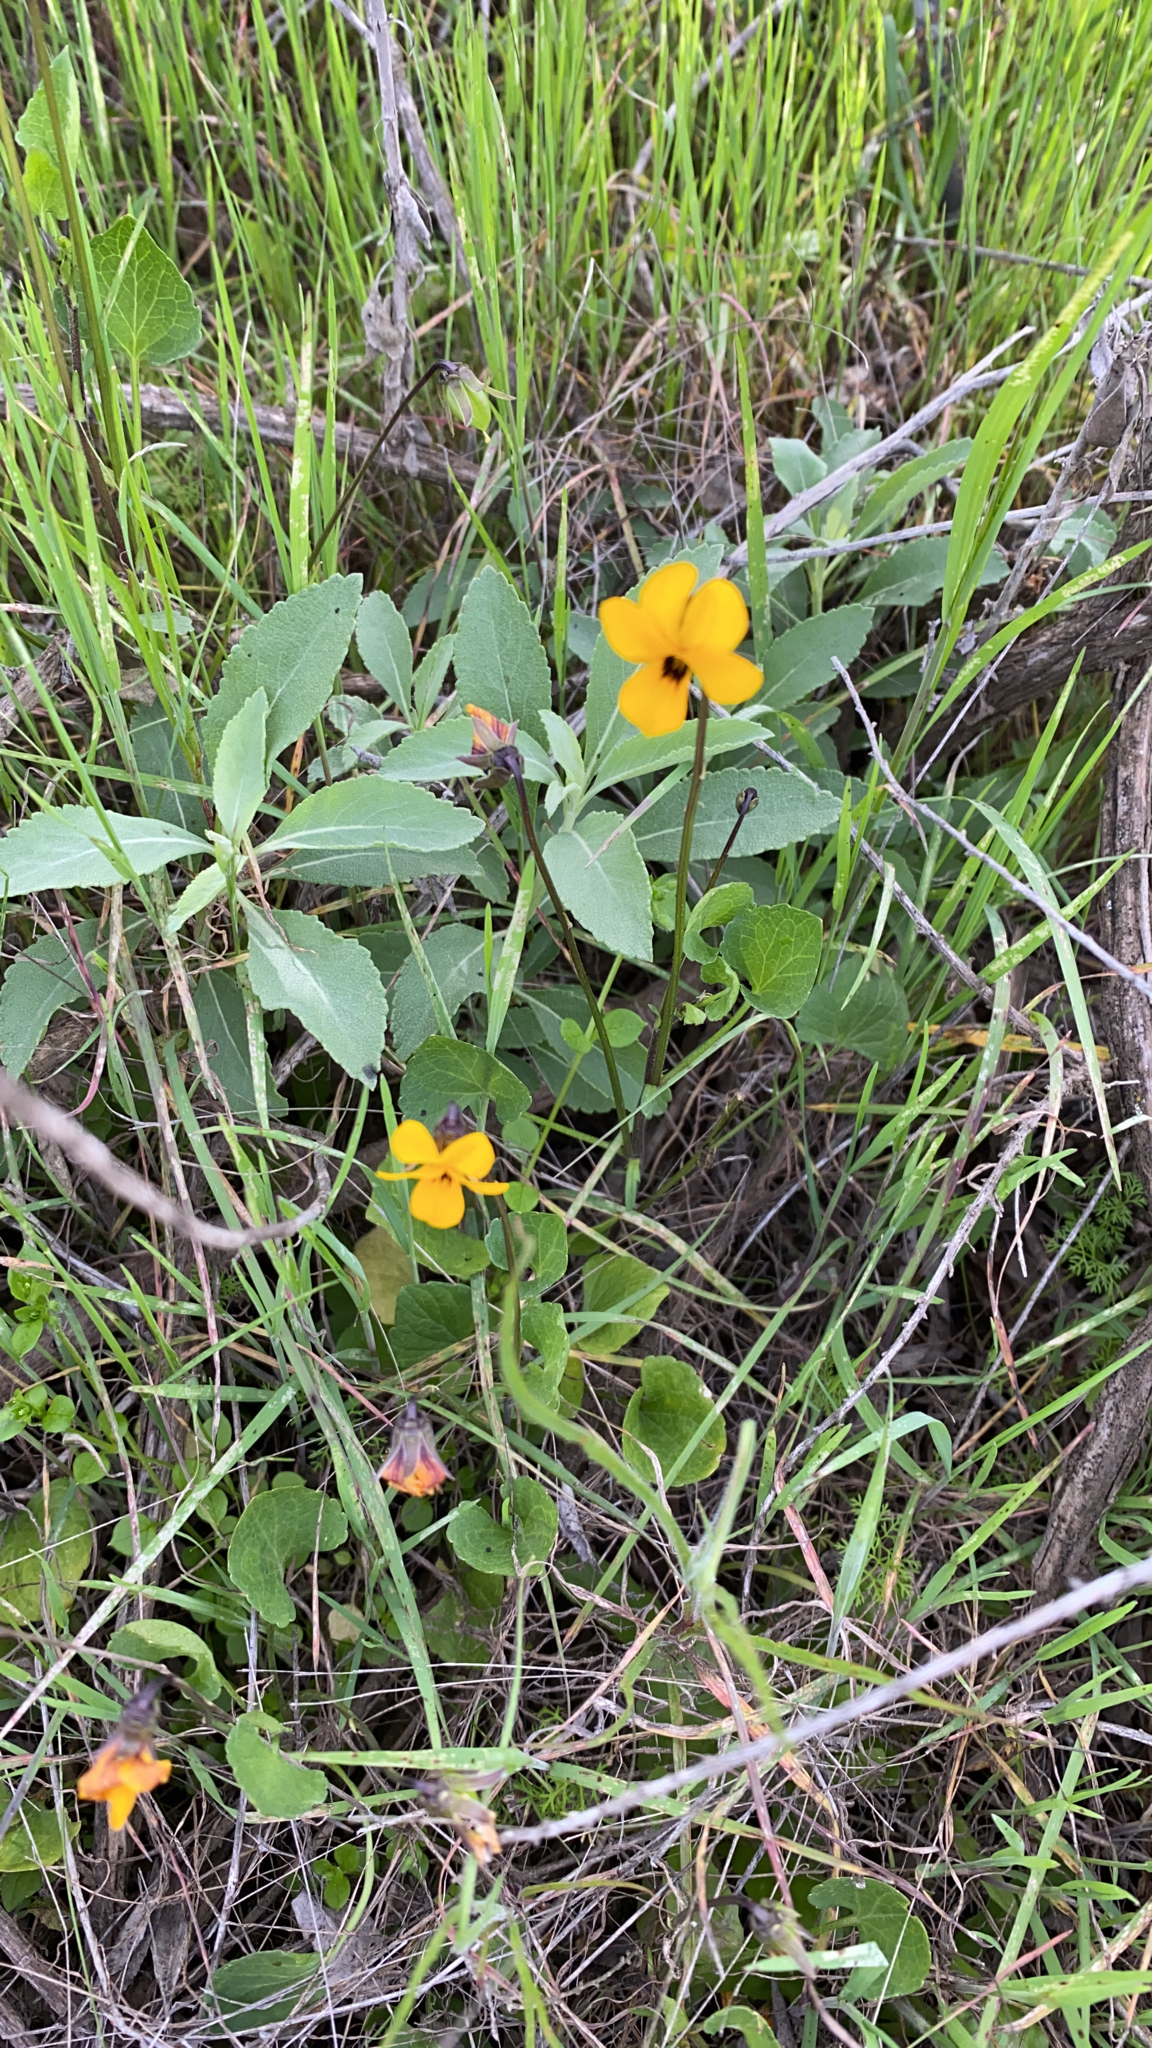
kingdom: Plantae
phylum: Tracheophyta
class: Magnoliopsida
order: Malpighiales
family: Violaceae
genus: Viola
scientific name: Viola pedunculata
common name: California golden violet
